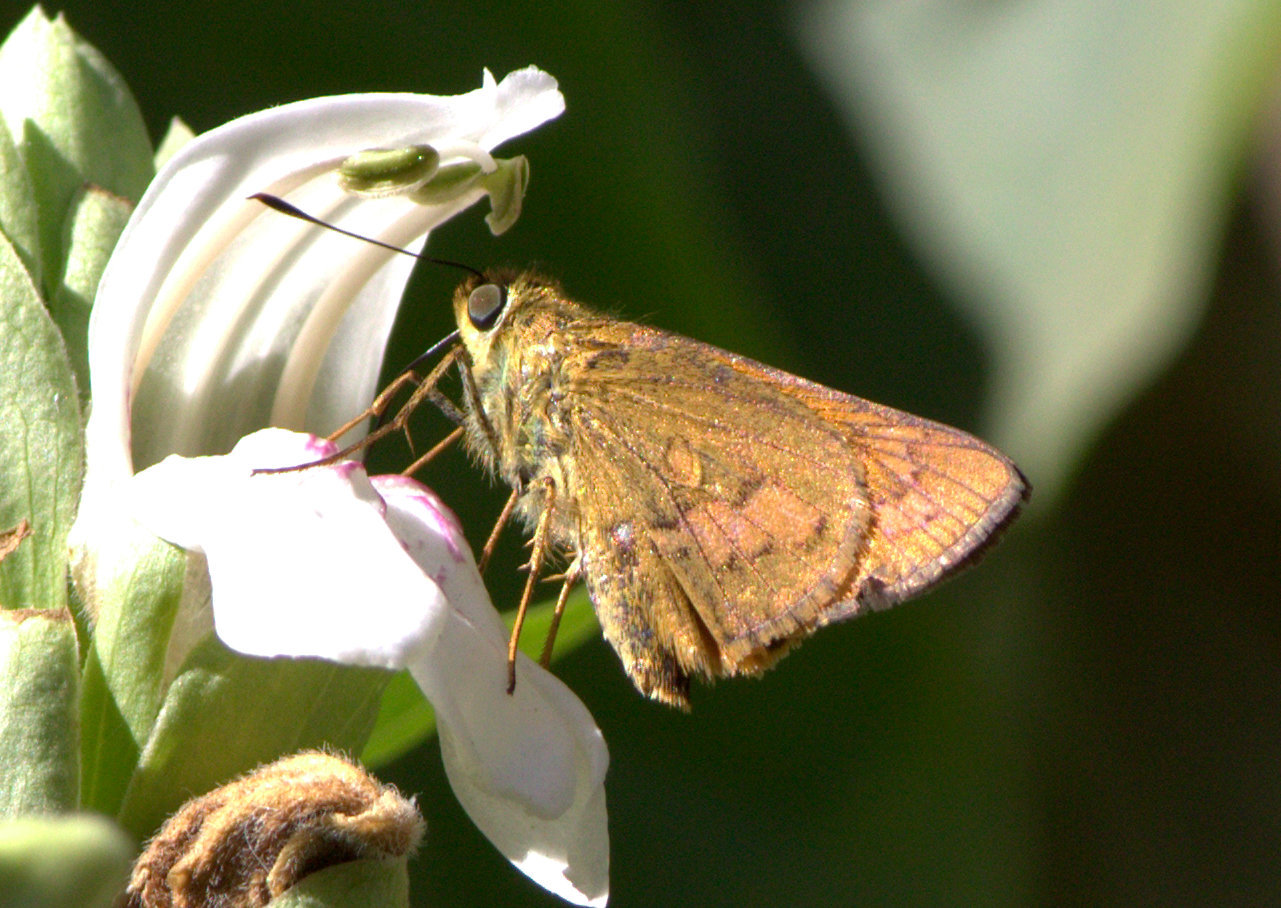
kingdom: Animalia
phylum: Arthropoda
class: Insecta
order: Lepidoptera
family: Hesperiidae
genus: Telicota
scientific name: Telicota bambusae
